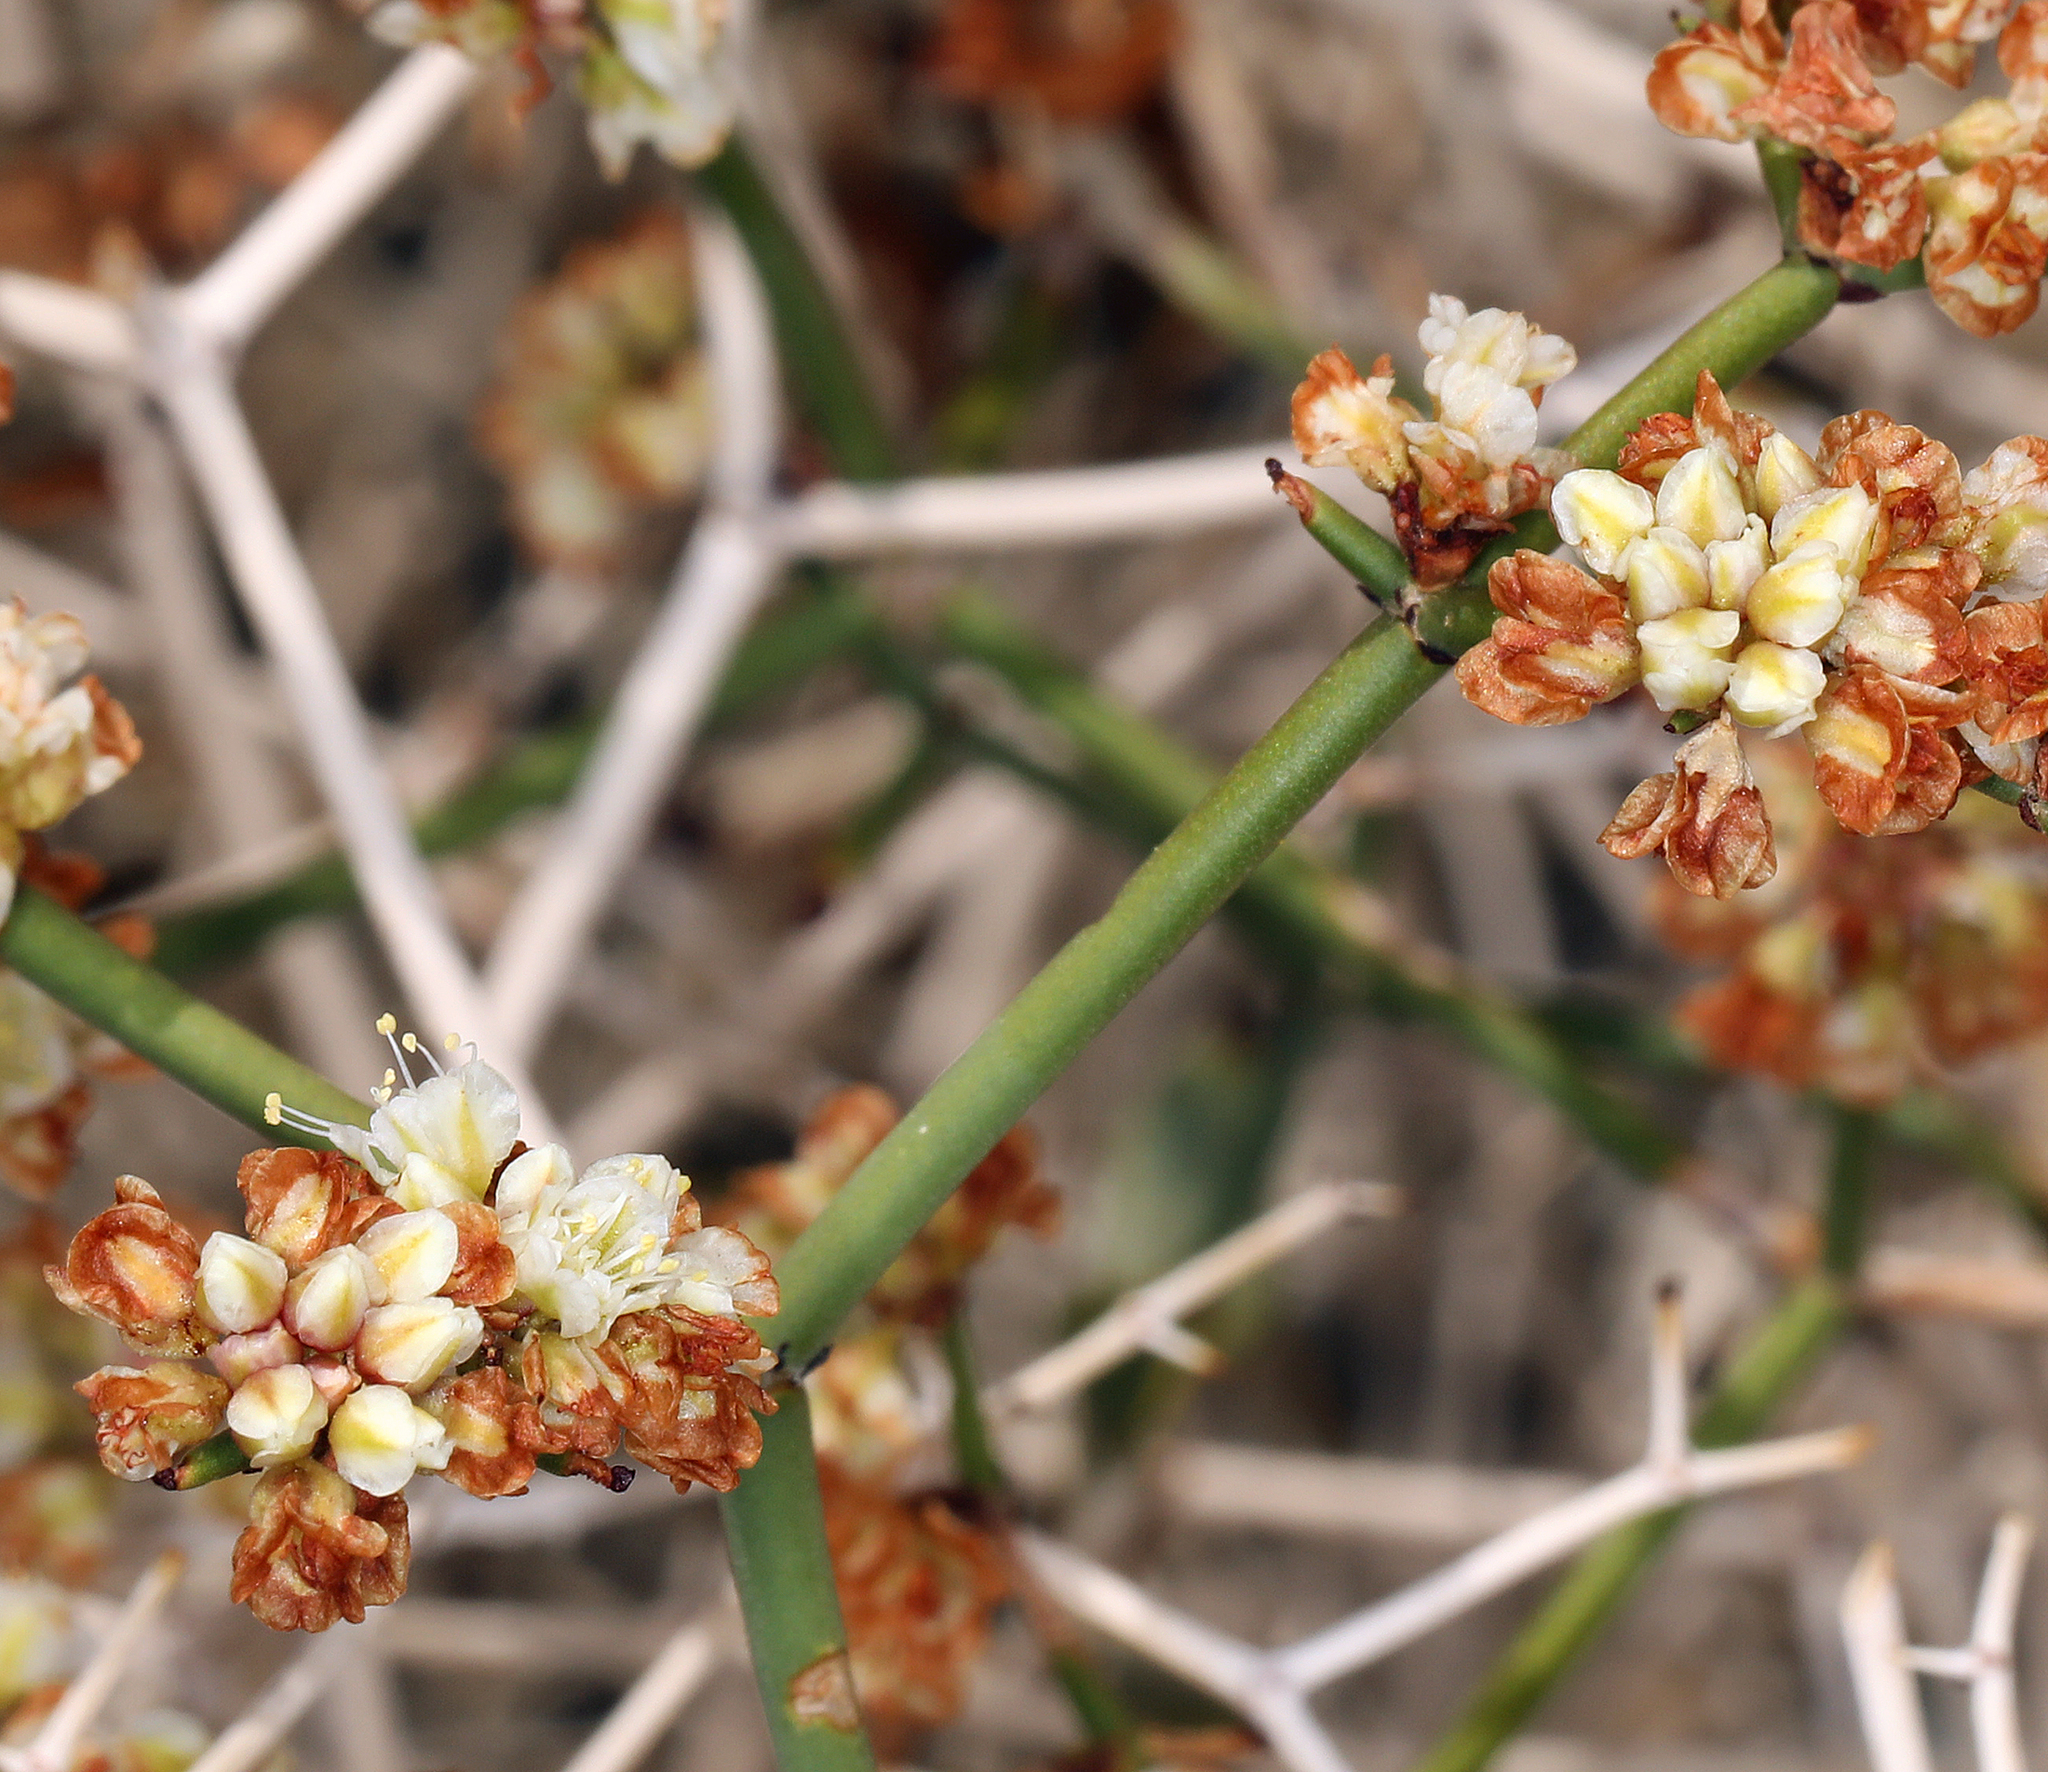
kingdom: Plantae
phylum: Tracheophyta
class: Magnoliopsida
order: Caryophyllales
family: Polygonaceae
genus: Eriogonum
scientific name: Eriogonum heermannii
